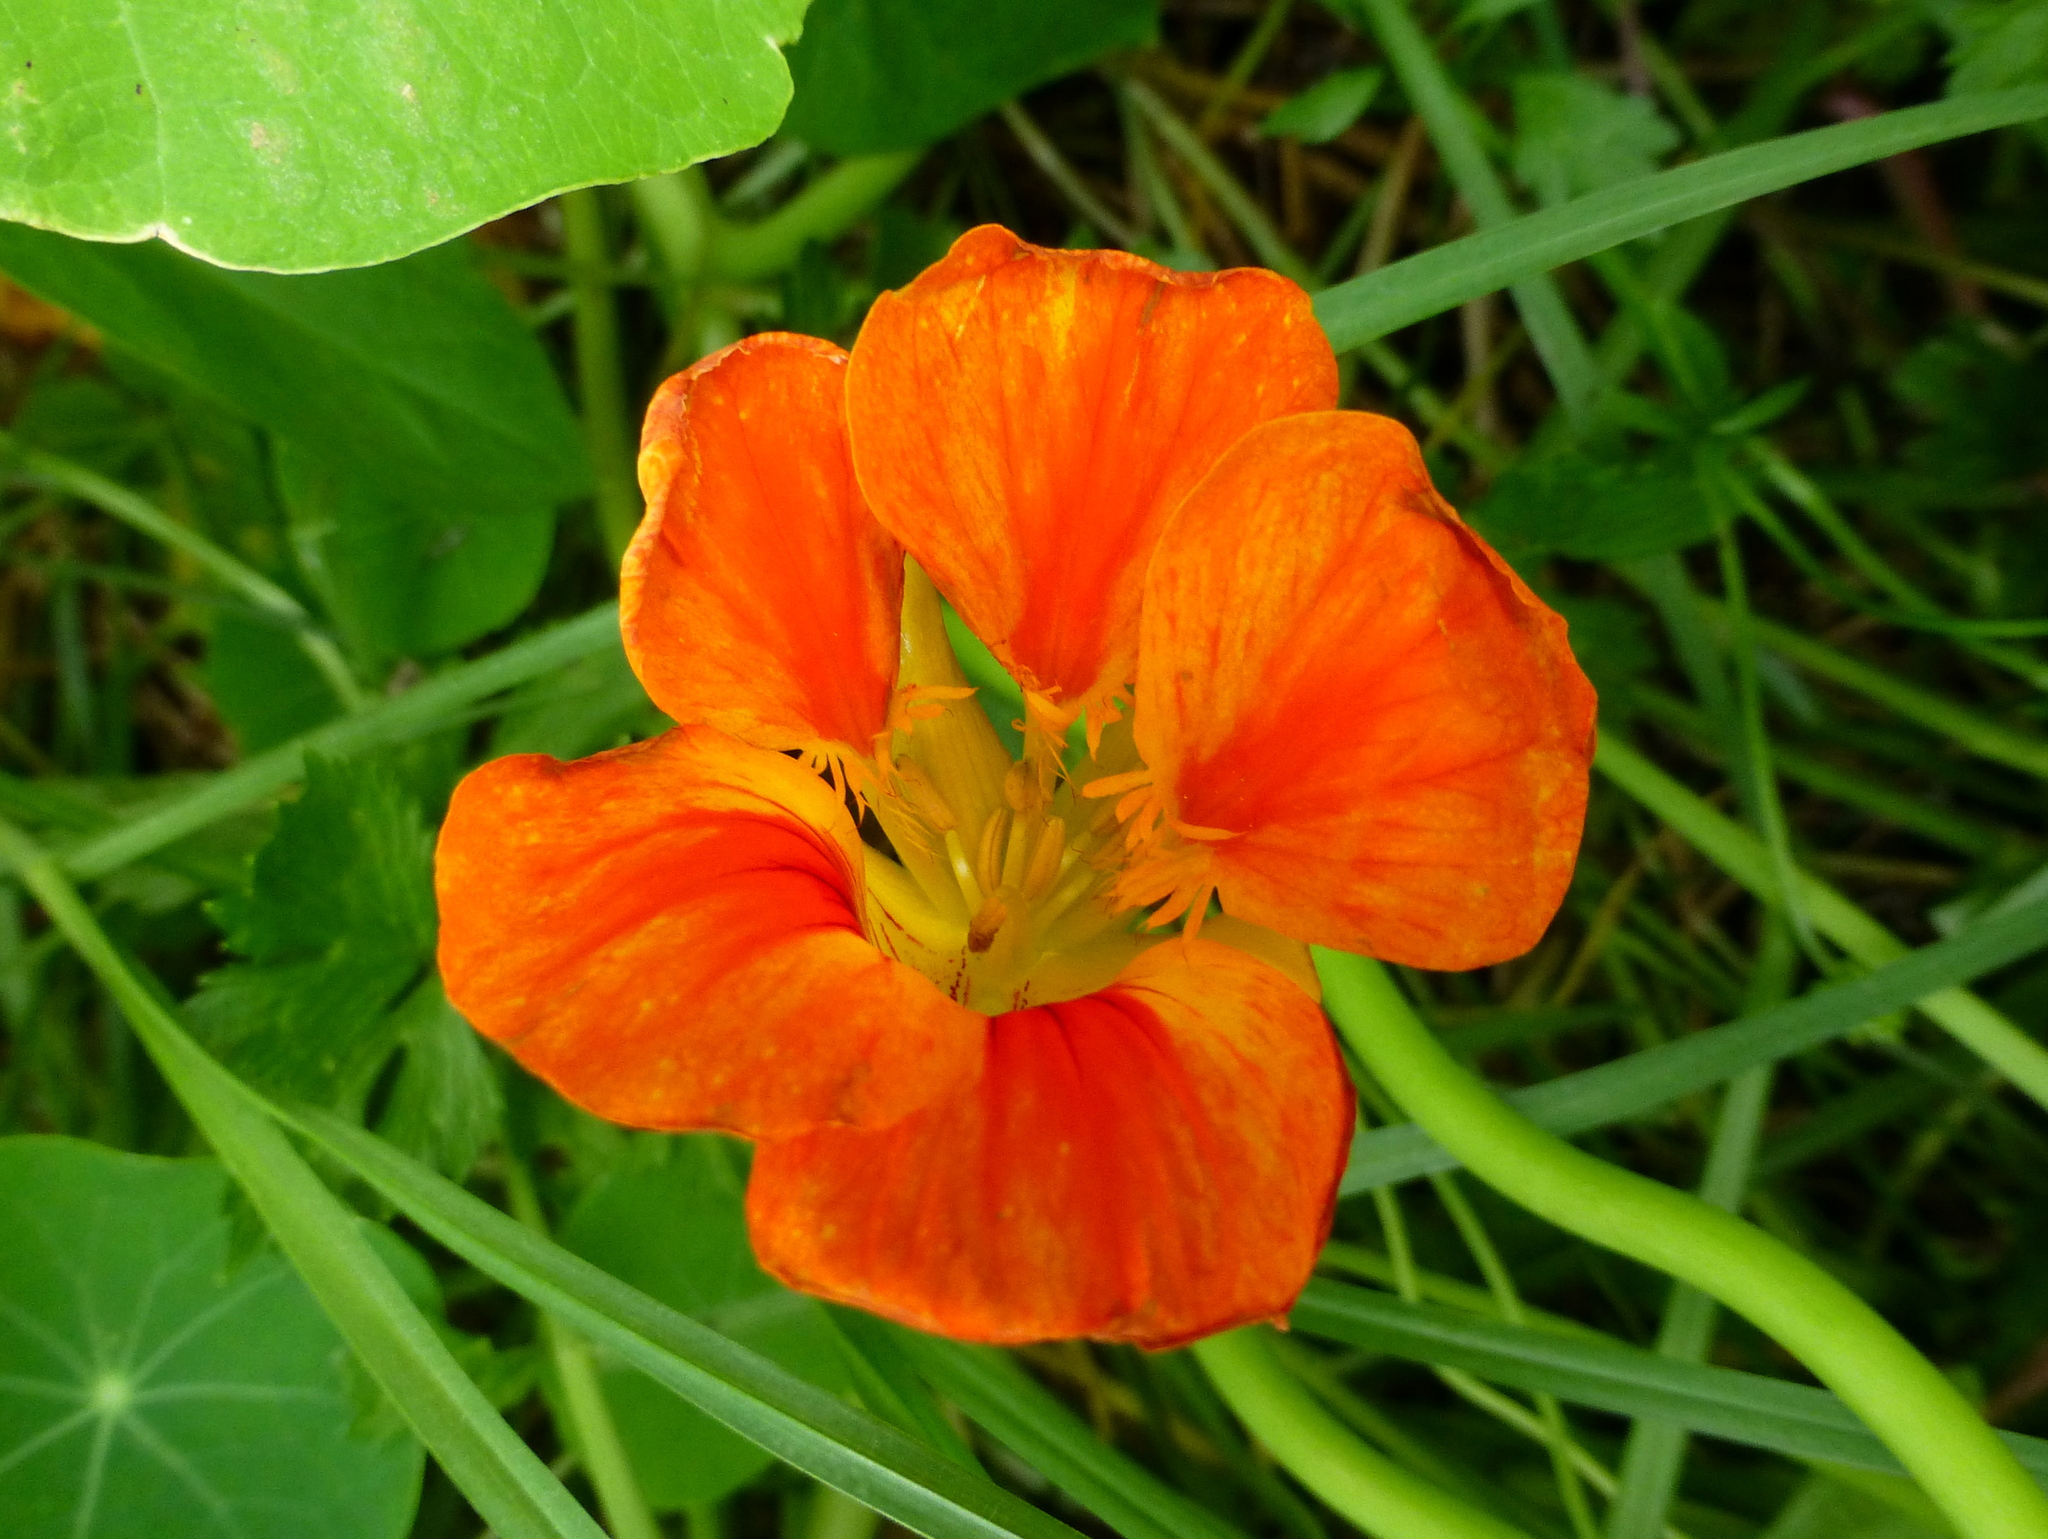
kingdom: Plantae
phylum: Tracheophyta
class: Magnoliopsida
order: Brassicales
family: Tropaeolaceae
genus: Tropaeolum
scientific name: Tropaeolum majus
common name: Nasturtium
